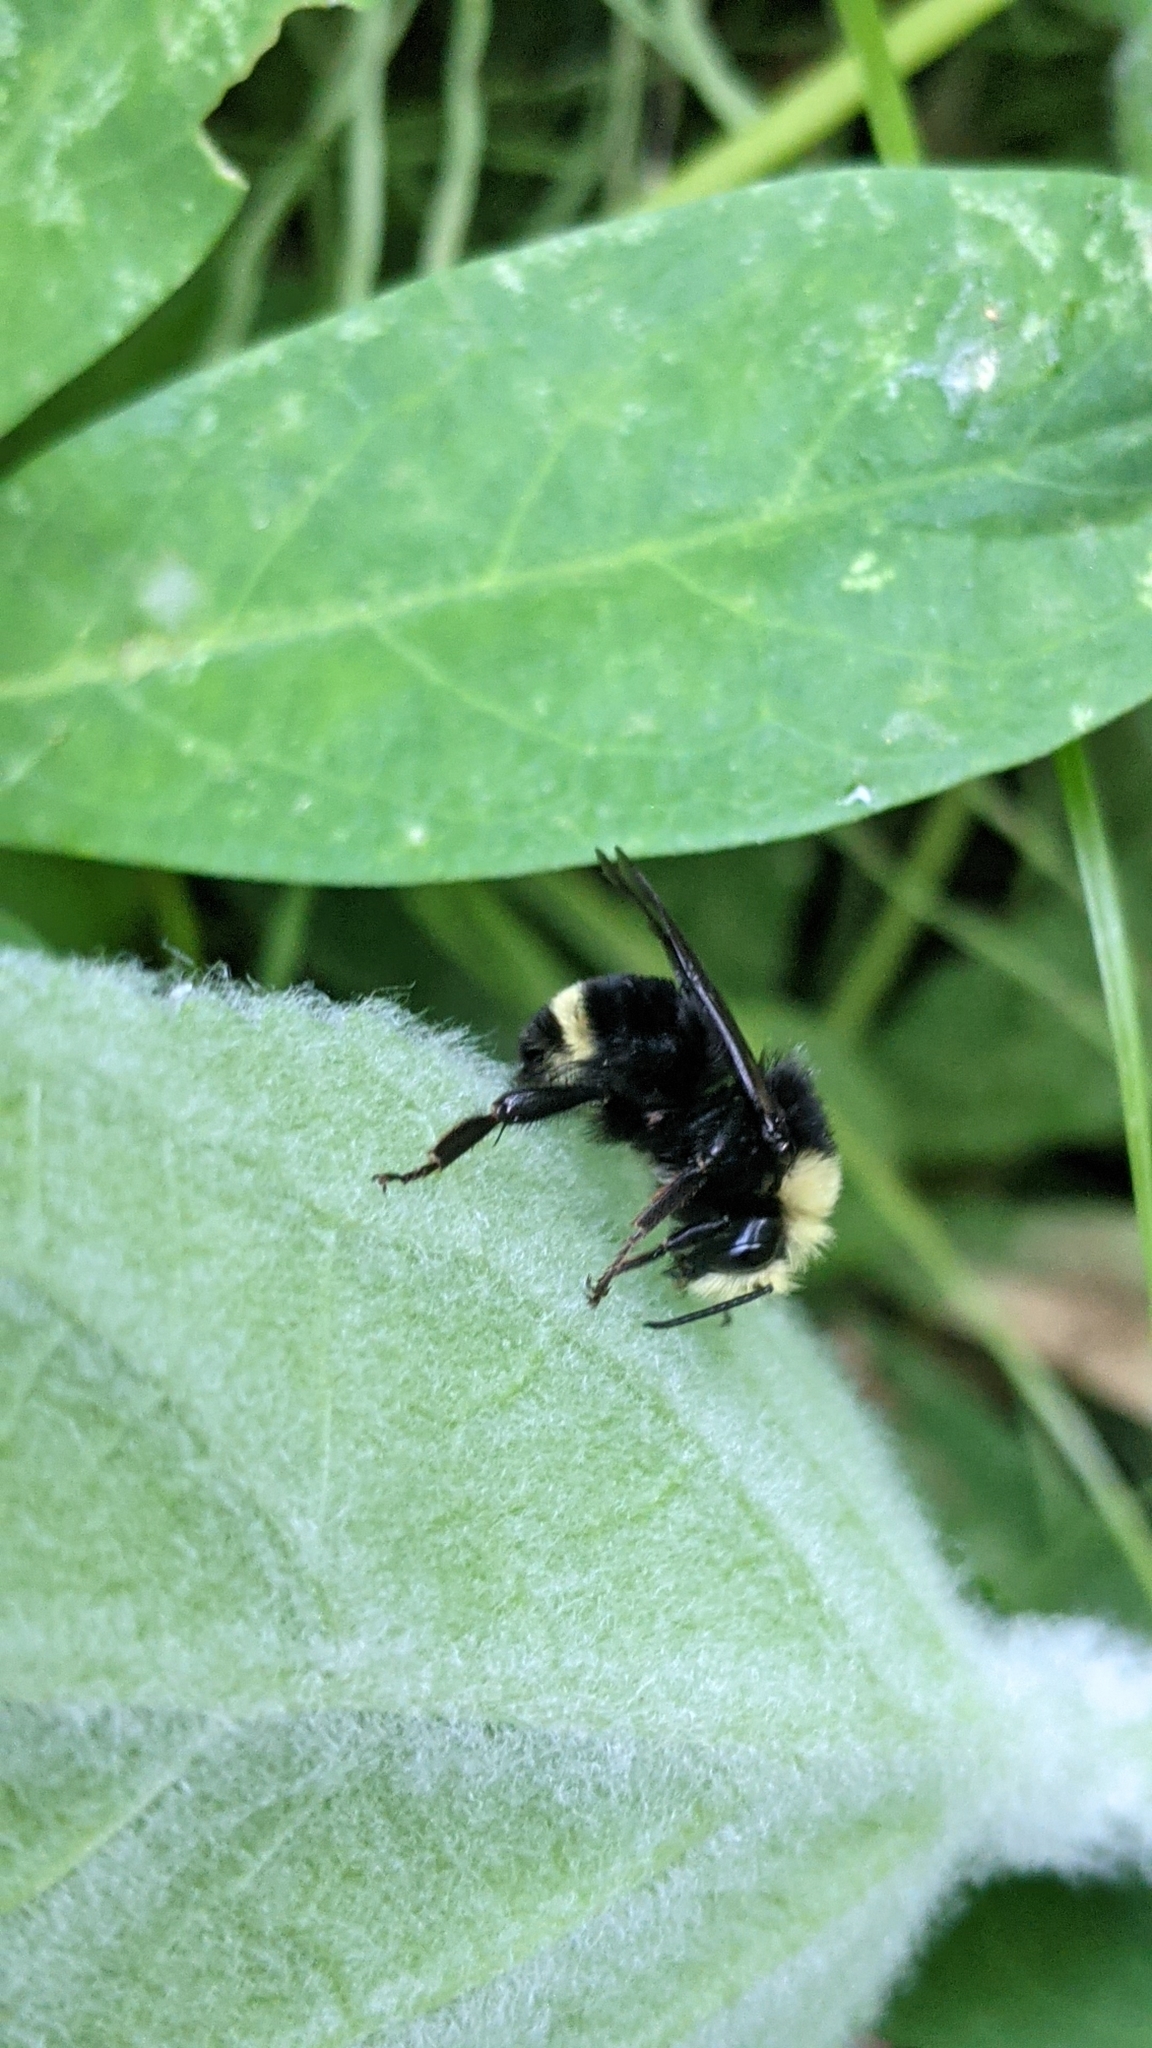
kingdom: Animalia
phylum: Arthropoda
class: Insecta
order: Hymenoptera
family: Apidae
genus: Bombus
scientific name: Bombus vosnesenskii
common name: Vosnesensky bumble bee
